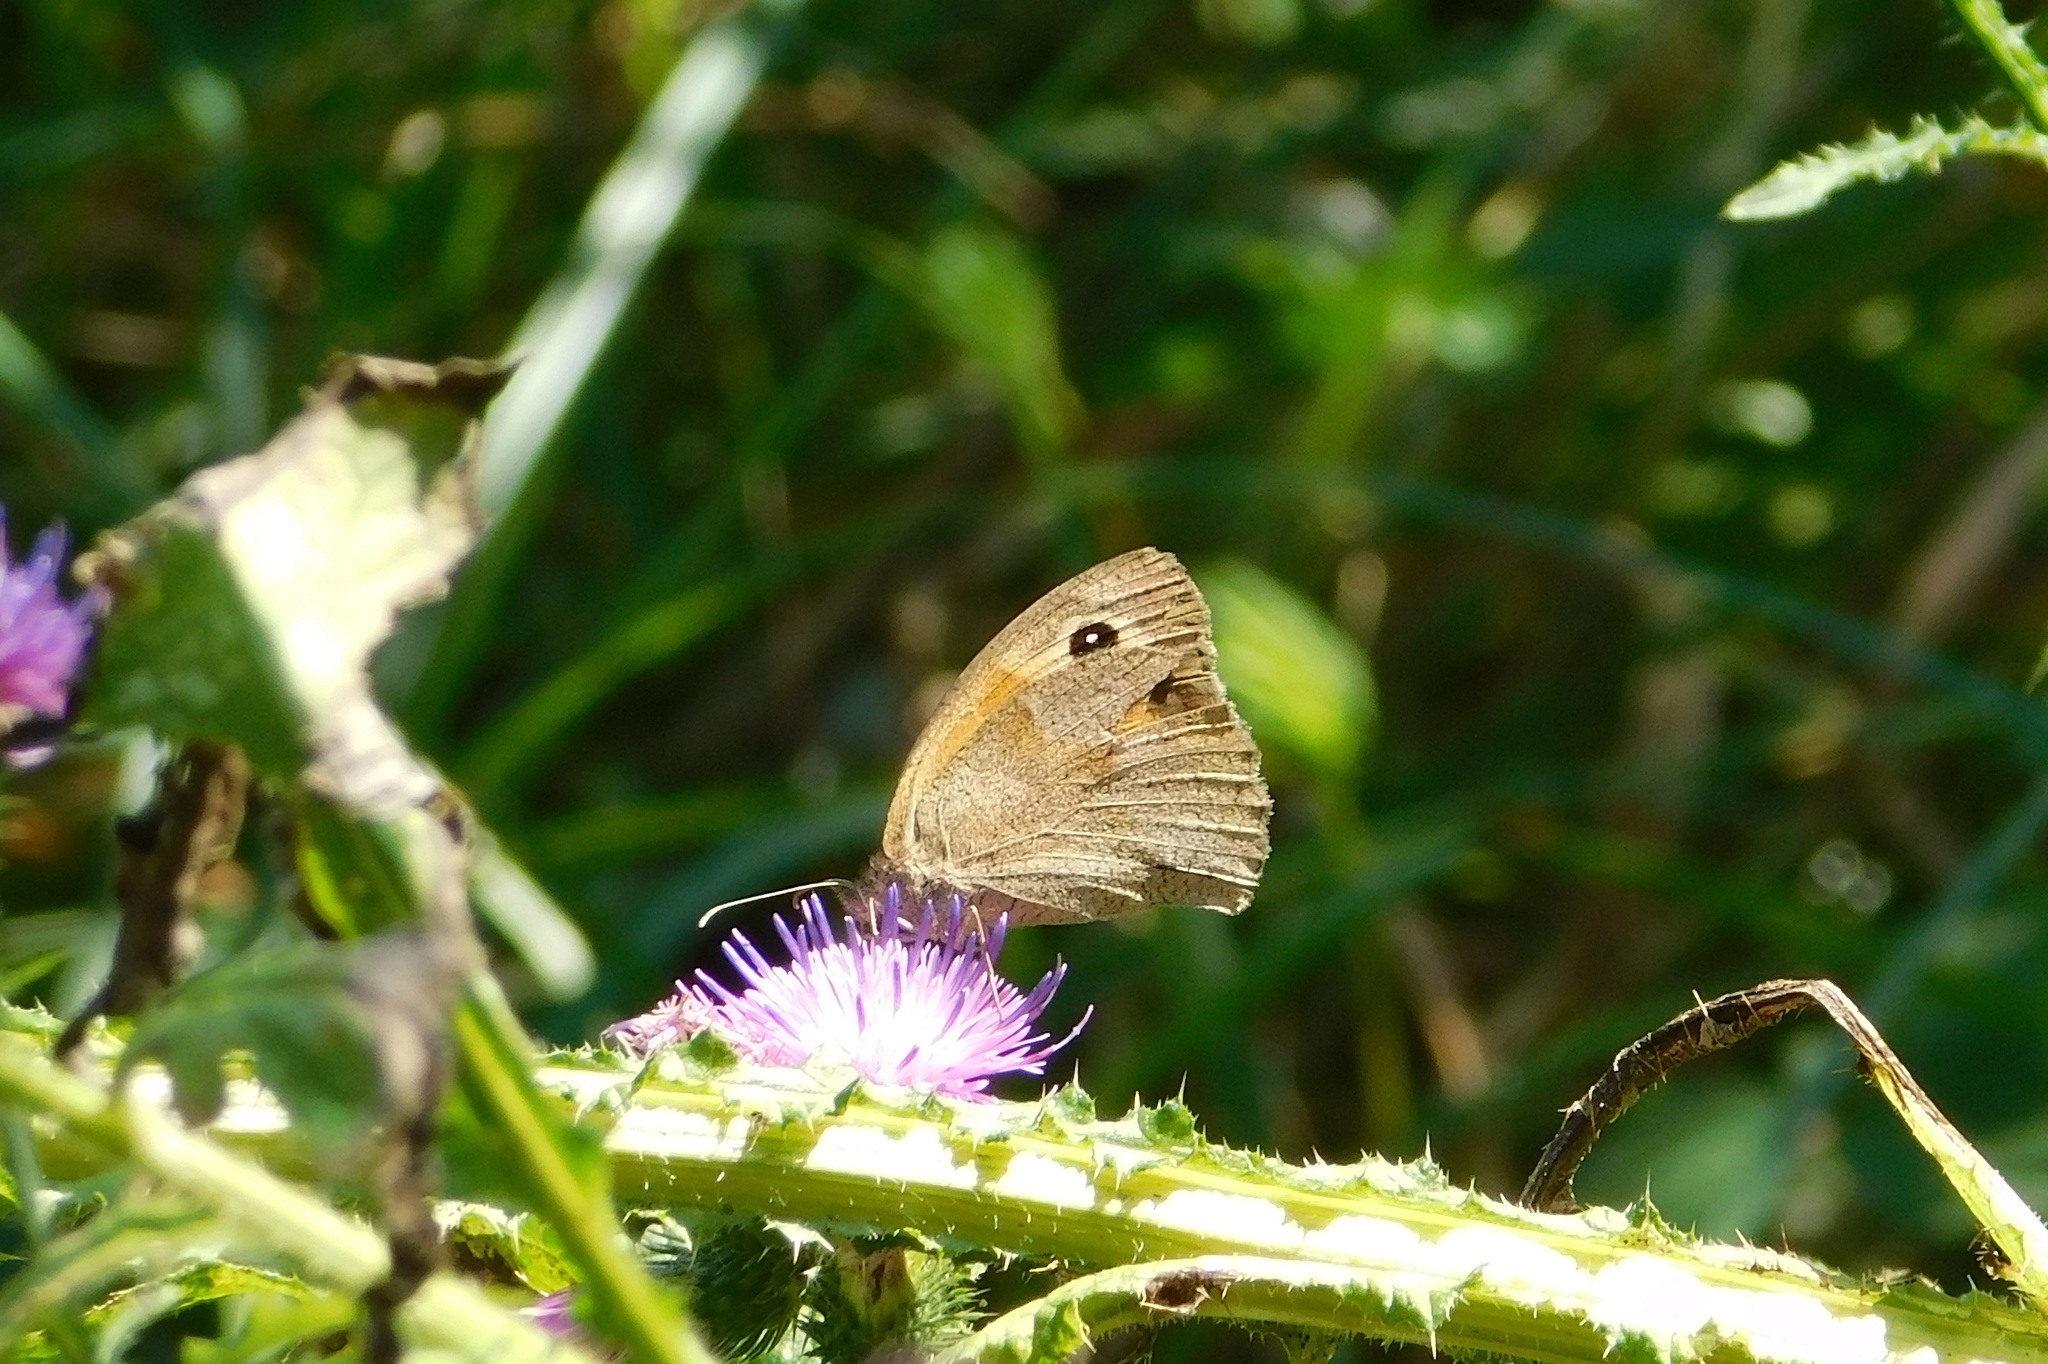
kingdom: Animalia
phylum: Arthropoda
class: Insecta
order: Lepidoptera
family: Nymphalidae
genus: Maniola
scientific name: Maniola jurtina
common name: Meadow brown
